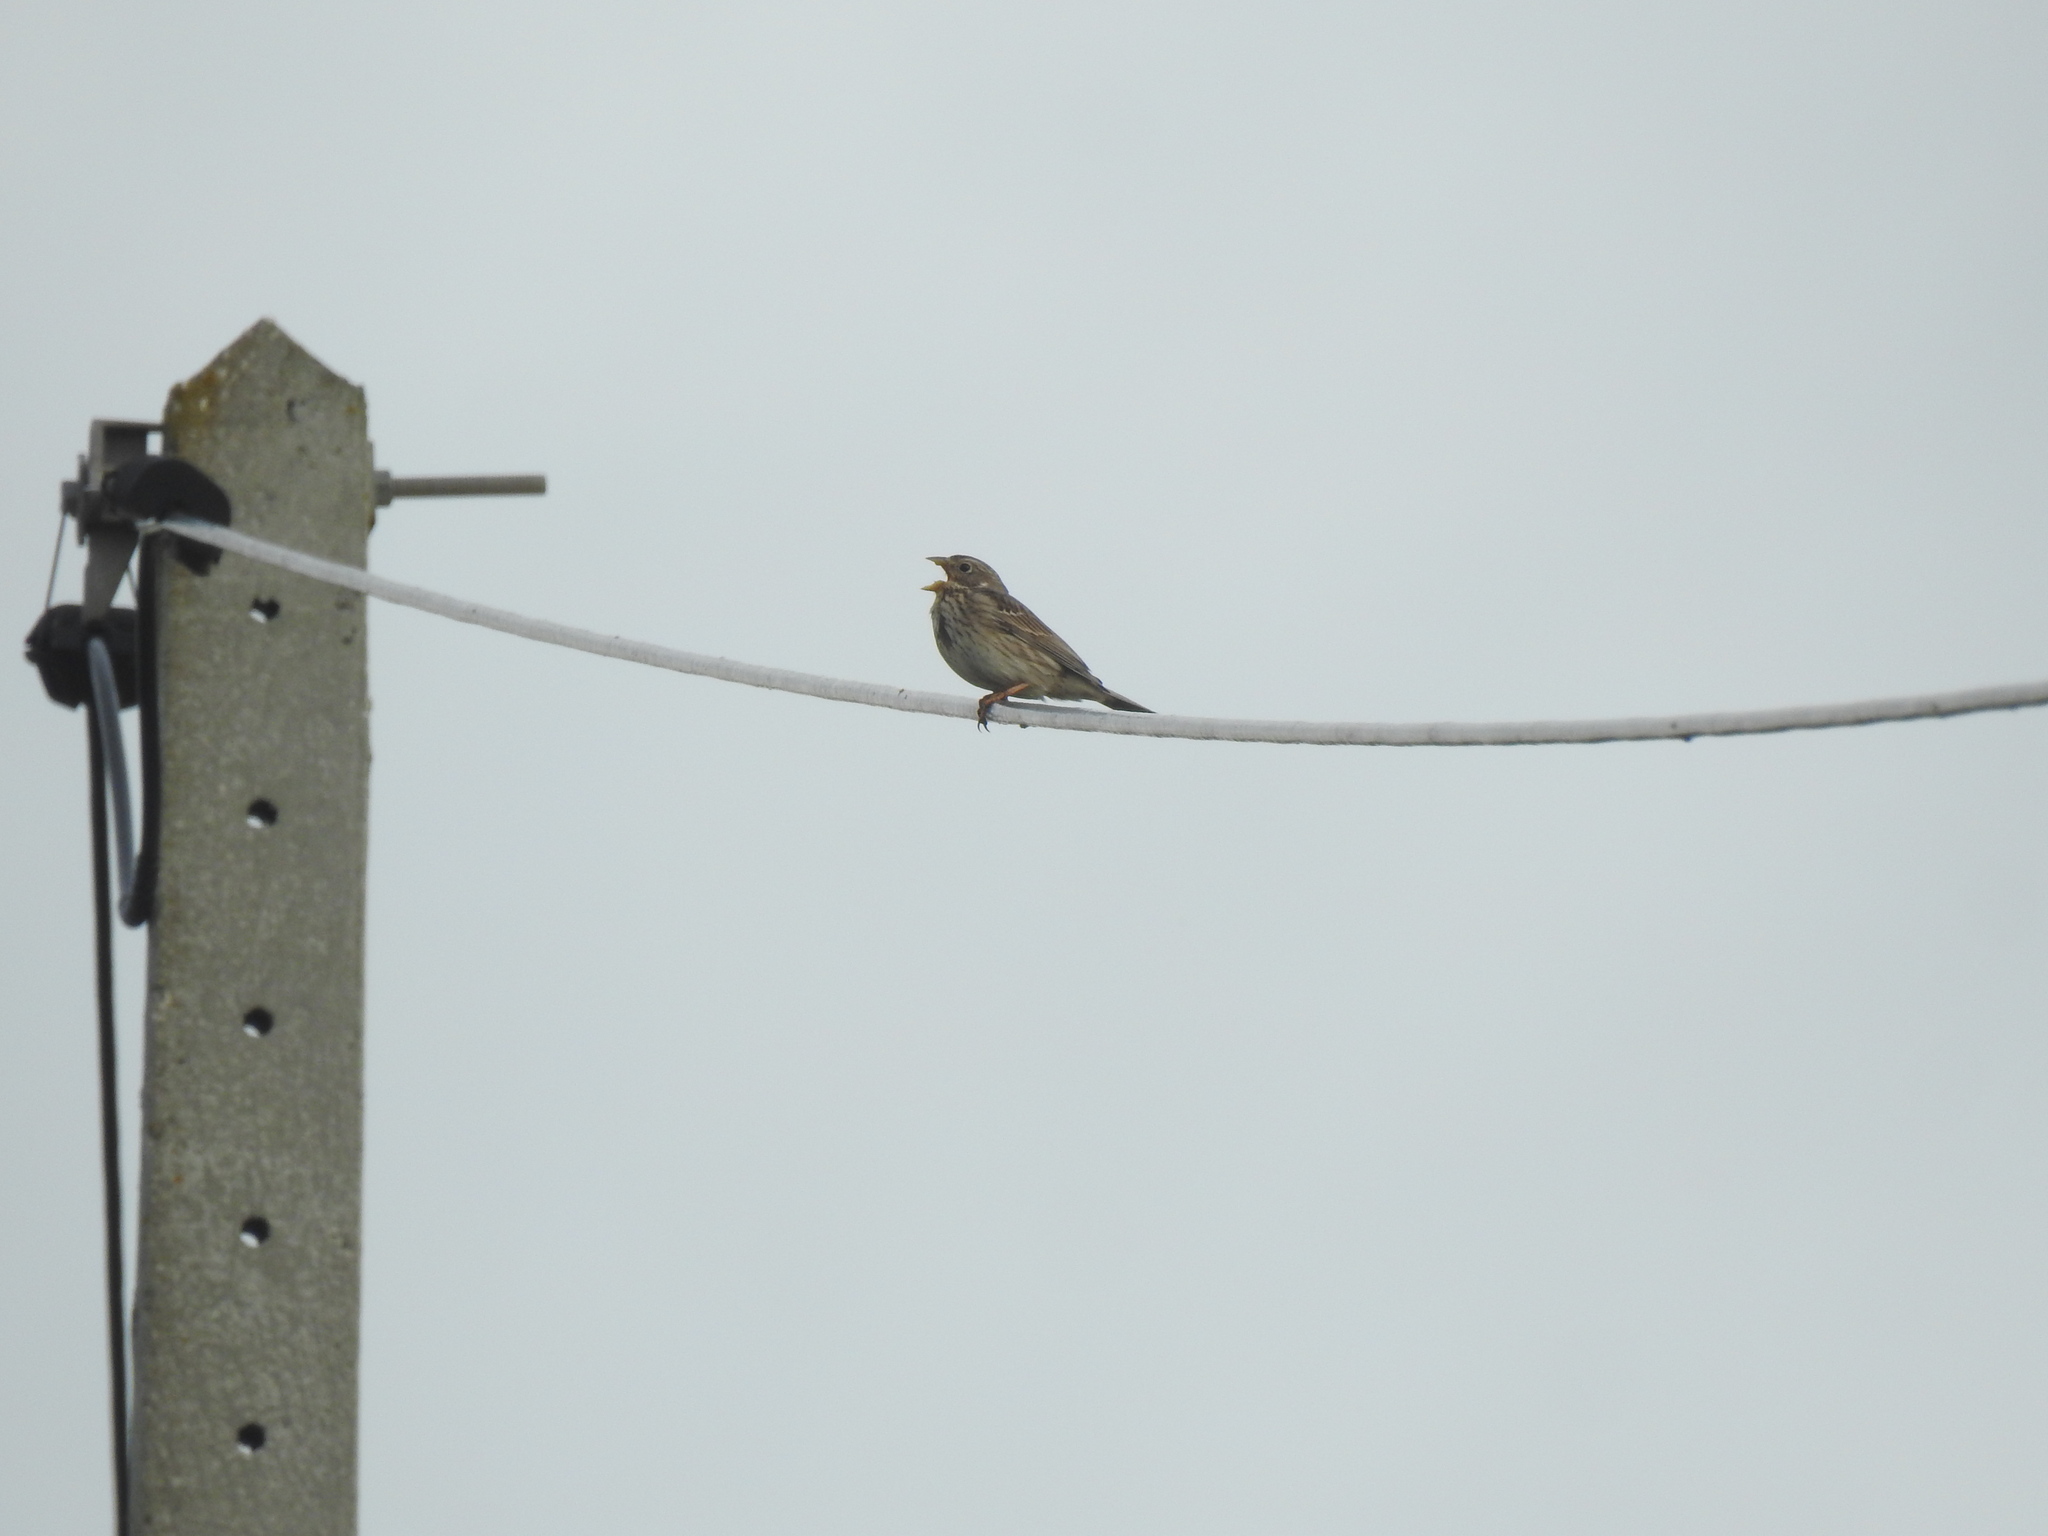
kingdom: Animalia
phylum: Chordata
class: Aves
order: Passeriformes
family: Emberizidae
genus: Emberiza
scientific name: Emberiza calandra
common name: Corn bunting
